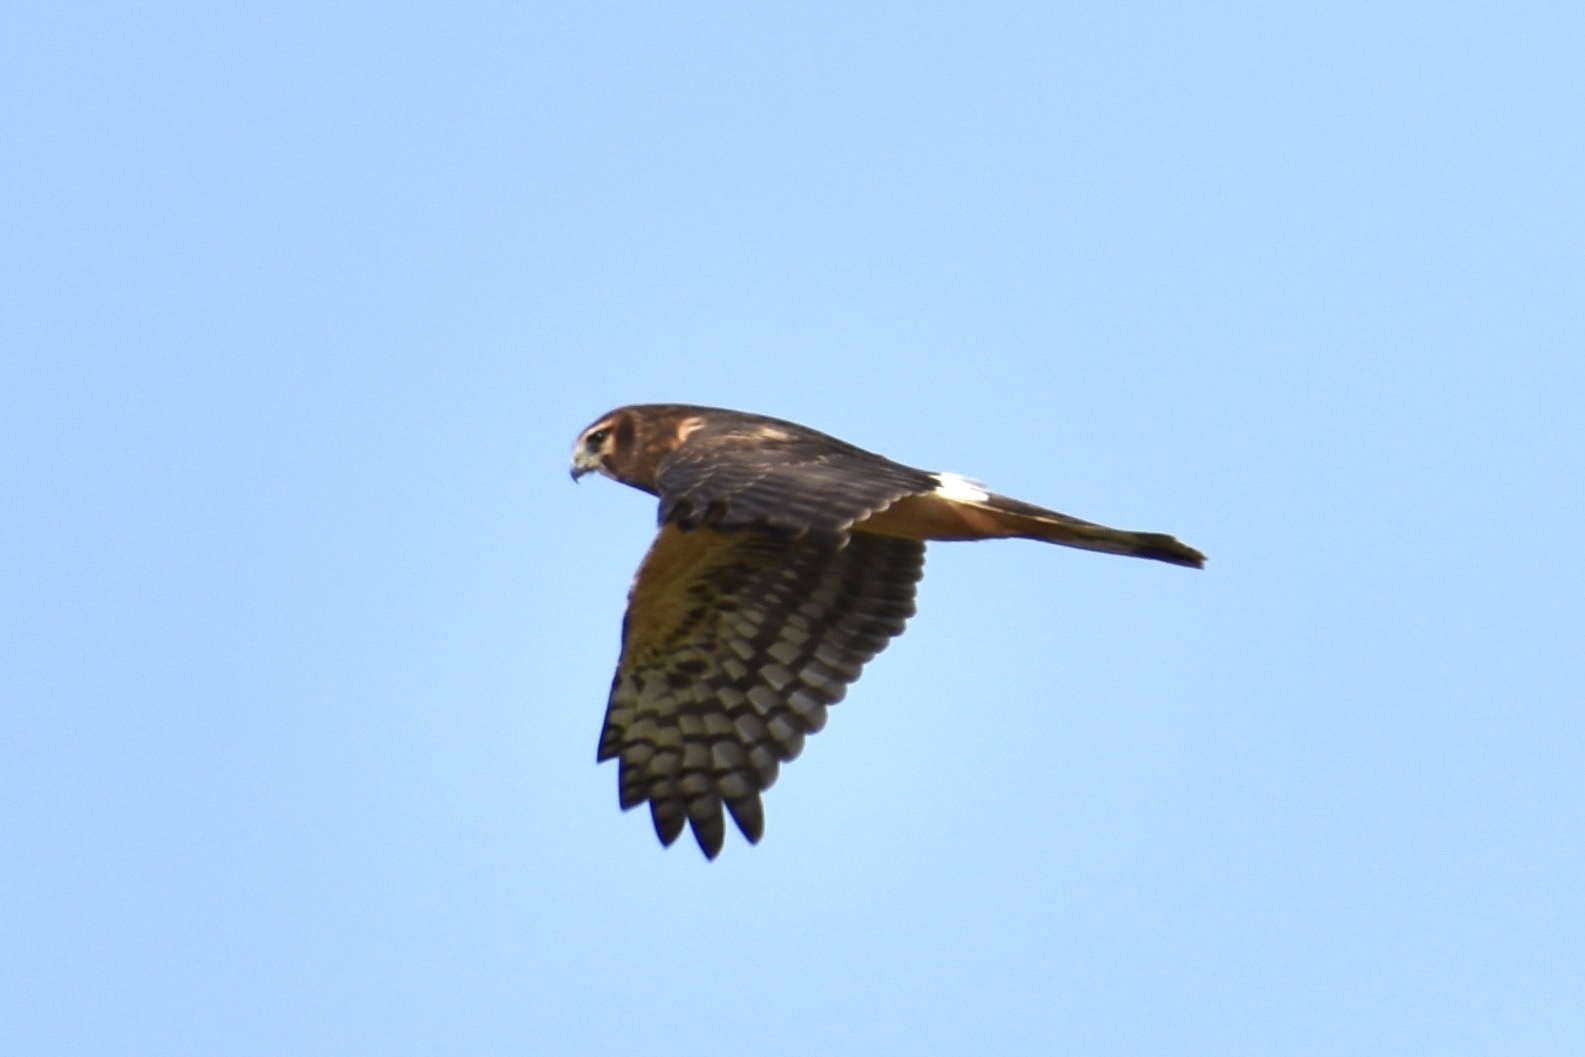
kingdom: Animalia
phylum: Chordata
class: Aves
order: Accipitriformes
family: Accipitridae
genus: Circus
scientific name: Circus cyaneus
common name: Hen harrier
